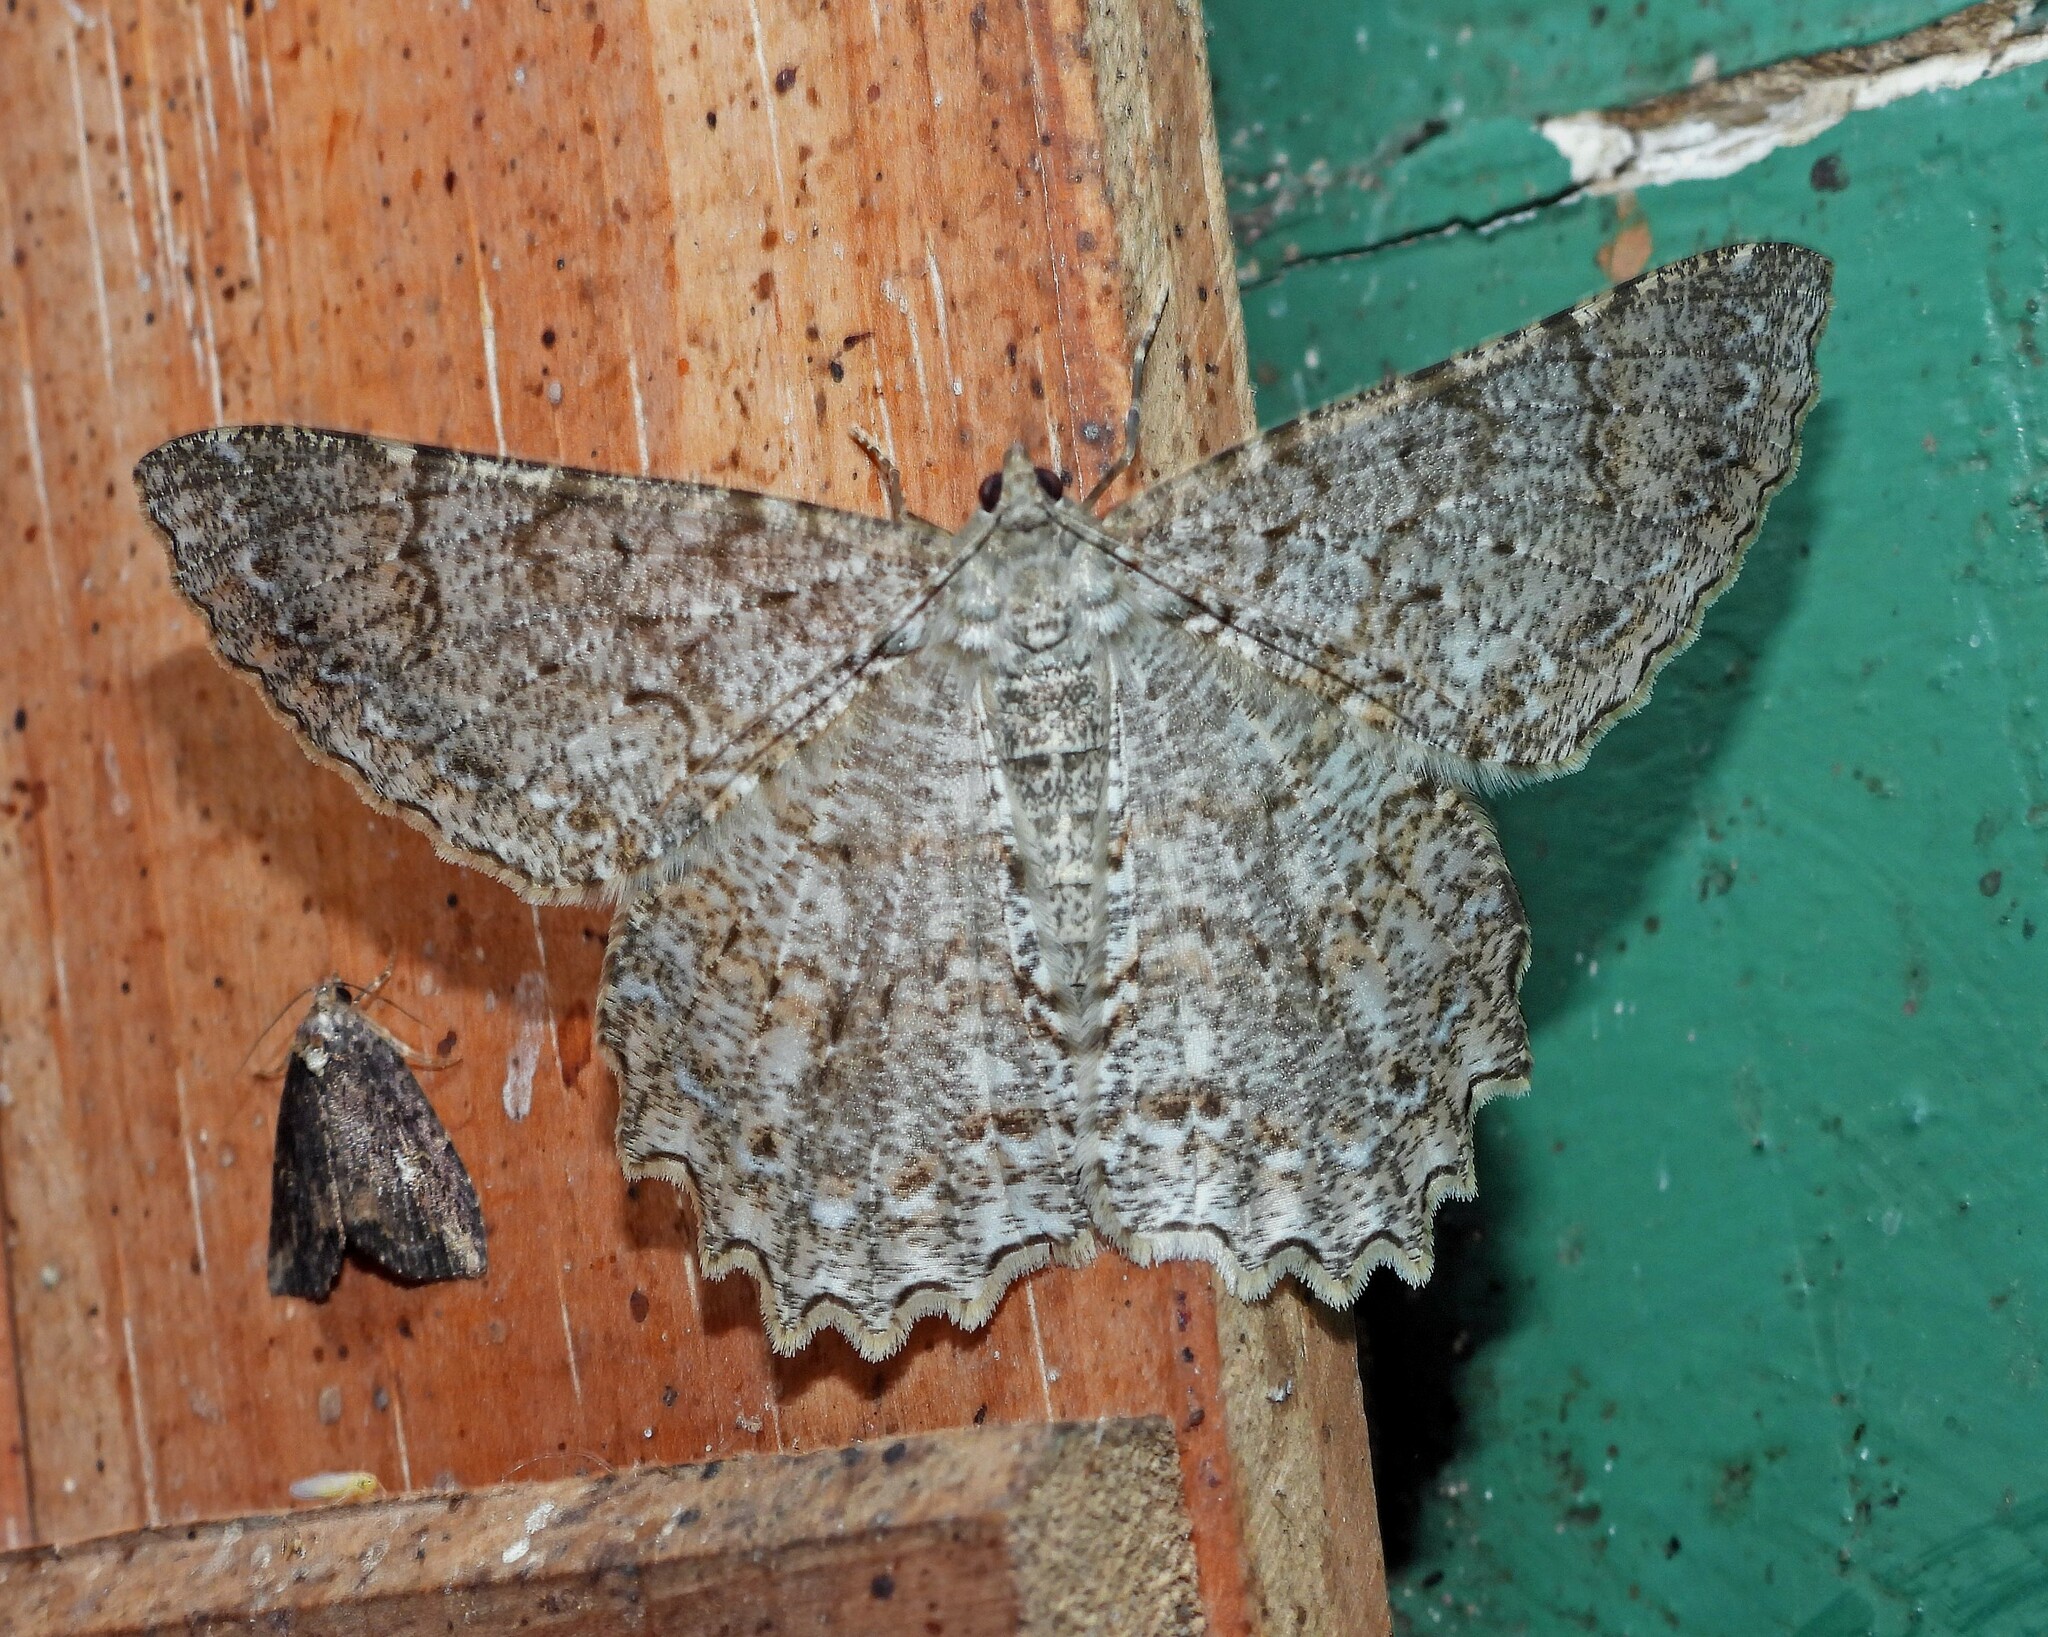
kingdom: Animalia
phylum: Arthropoda
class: Insecta
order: Lepidoptera
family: Geometridae
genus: Epimecis
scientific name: Epimecis conjugaria
